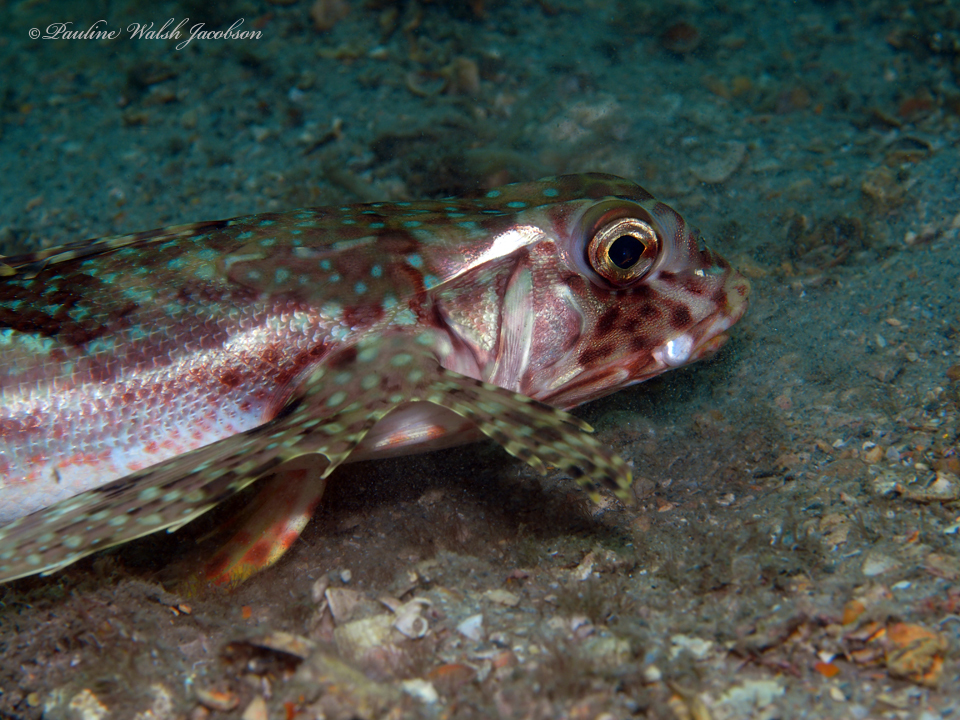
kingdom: Animalia
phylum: Chordata
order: Scorpaeniformes
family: Dactylopteridae
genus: Dactylopterus
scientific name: Dactylopterus volitans
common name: Flying gurnard
